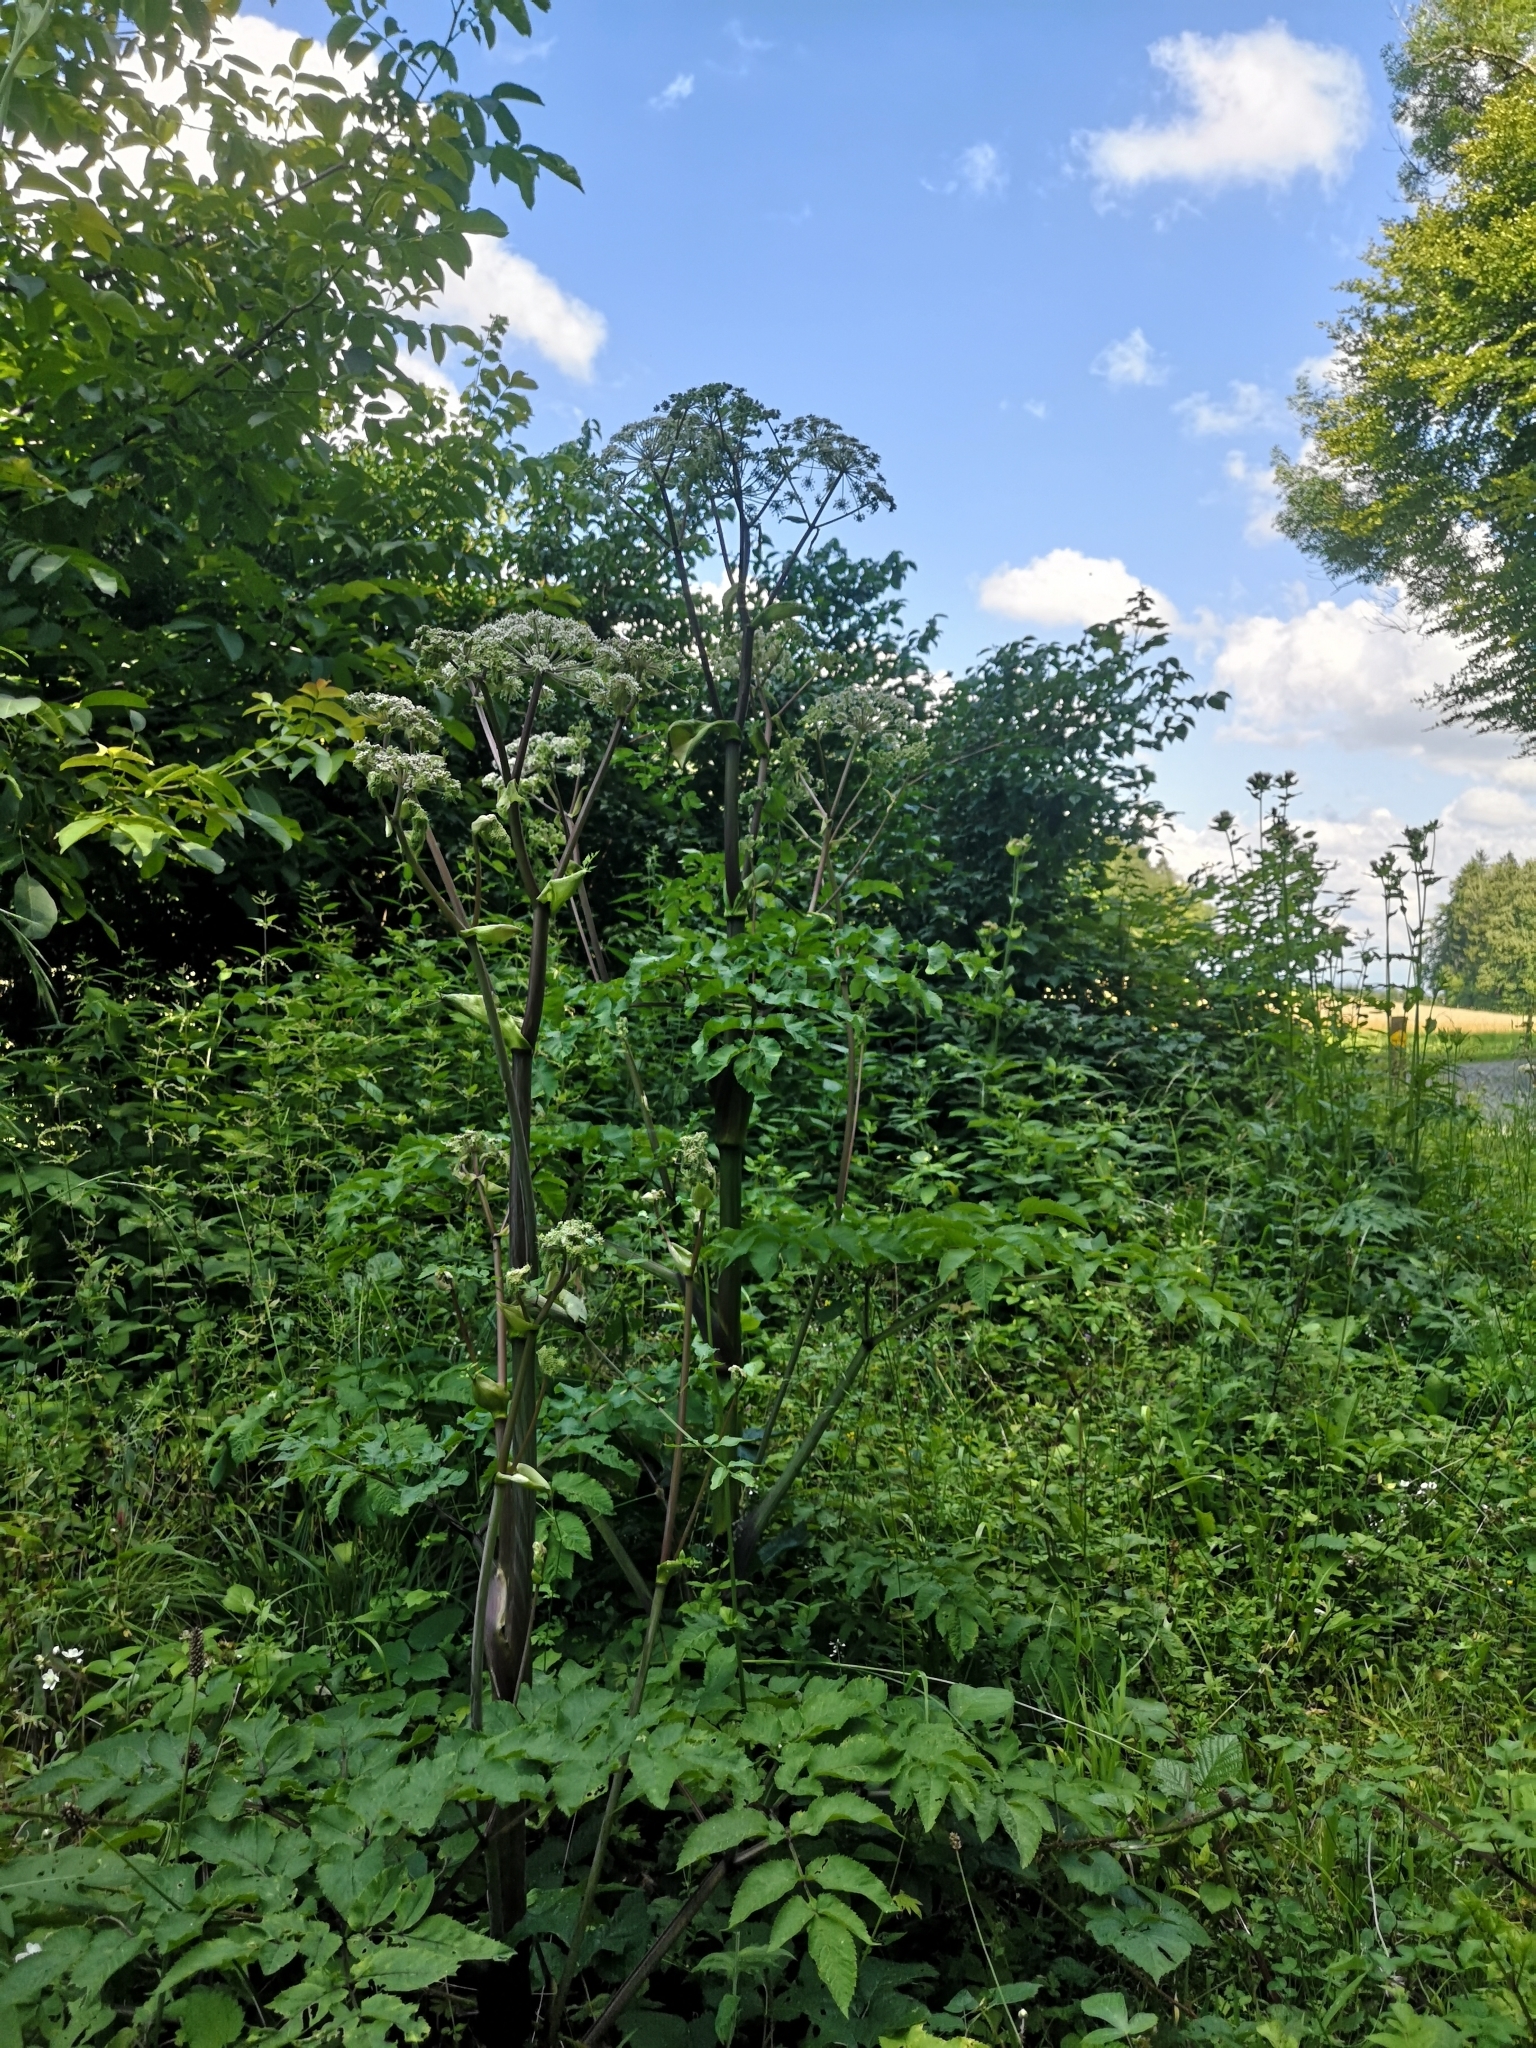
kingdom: Plantae
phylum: Tracheophyta
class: Magnoliopsida
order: Apiales
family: Apiaceae
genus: Angelica
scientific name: Angelica sylvestris
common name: Wild angelica
